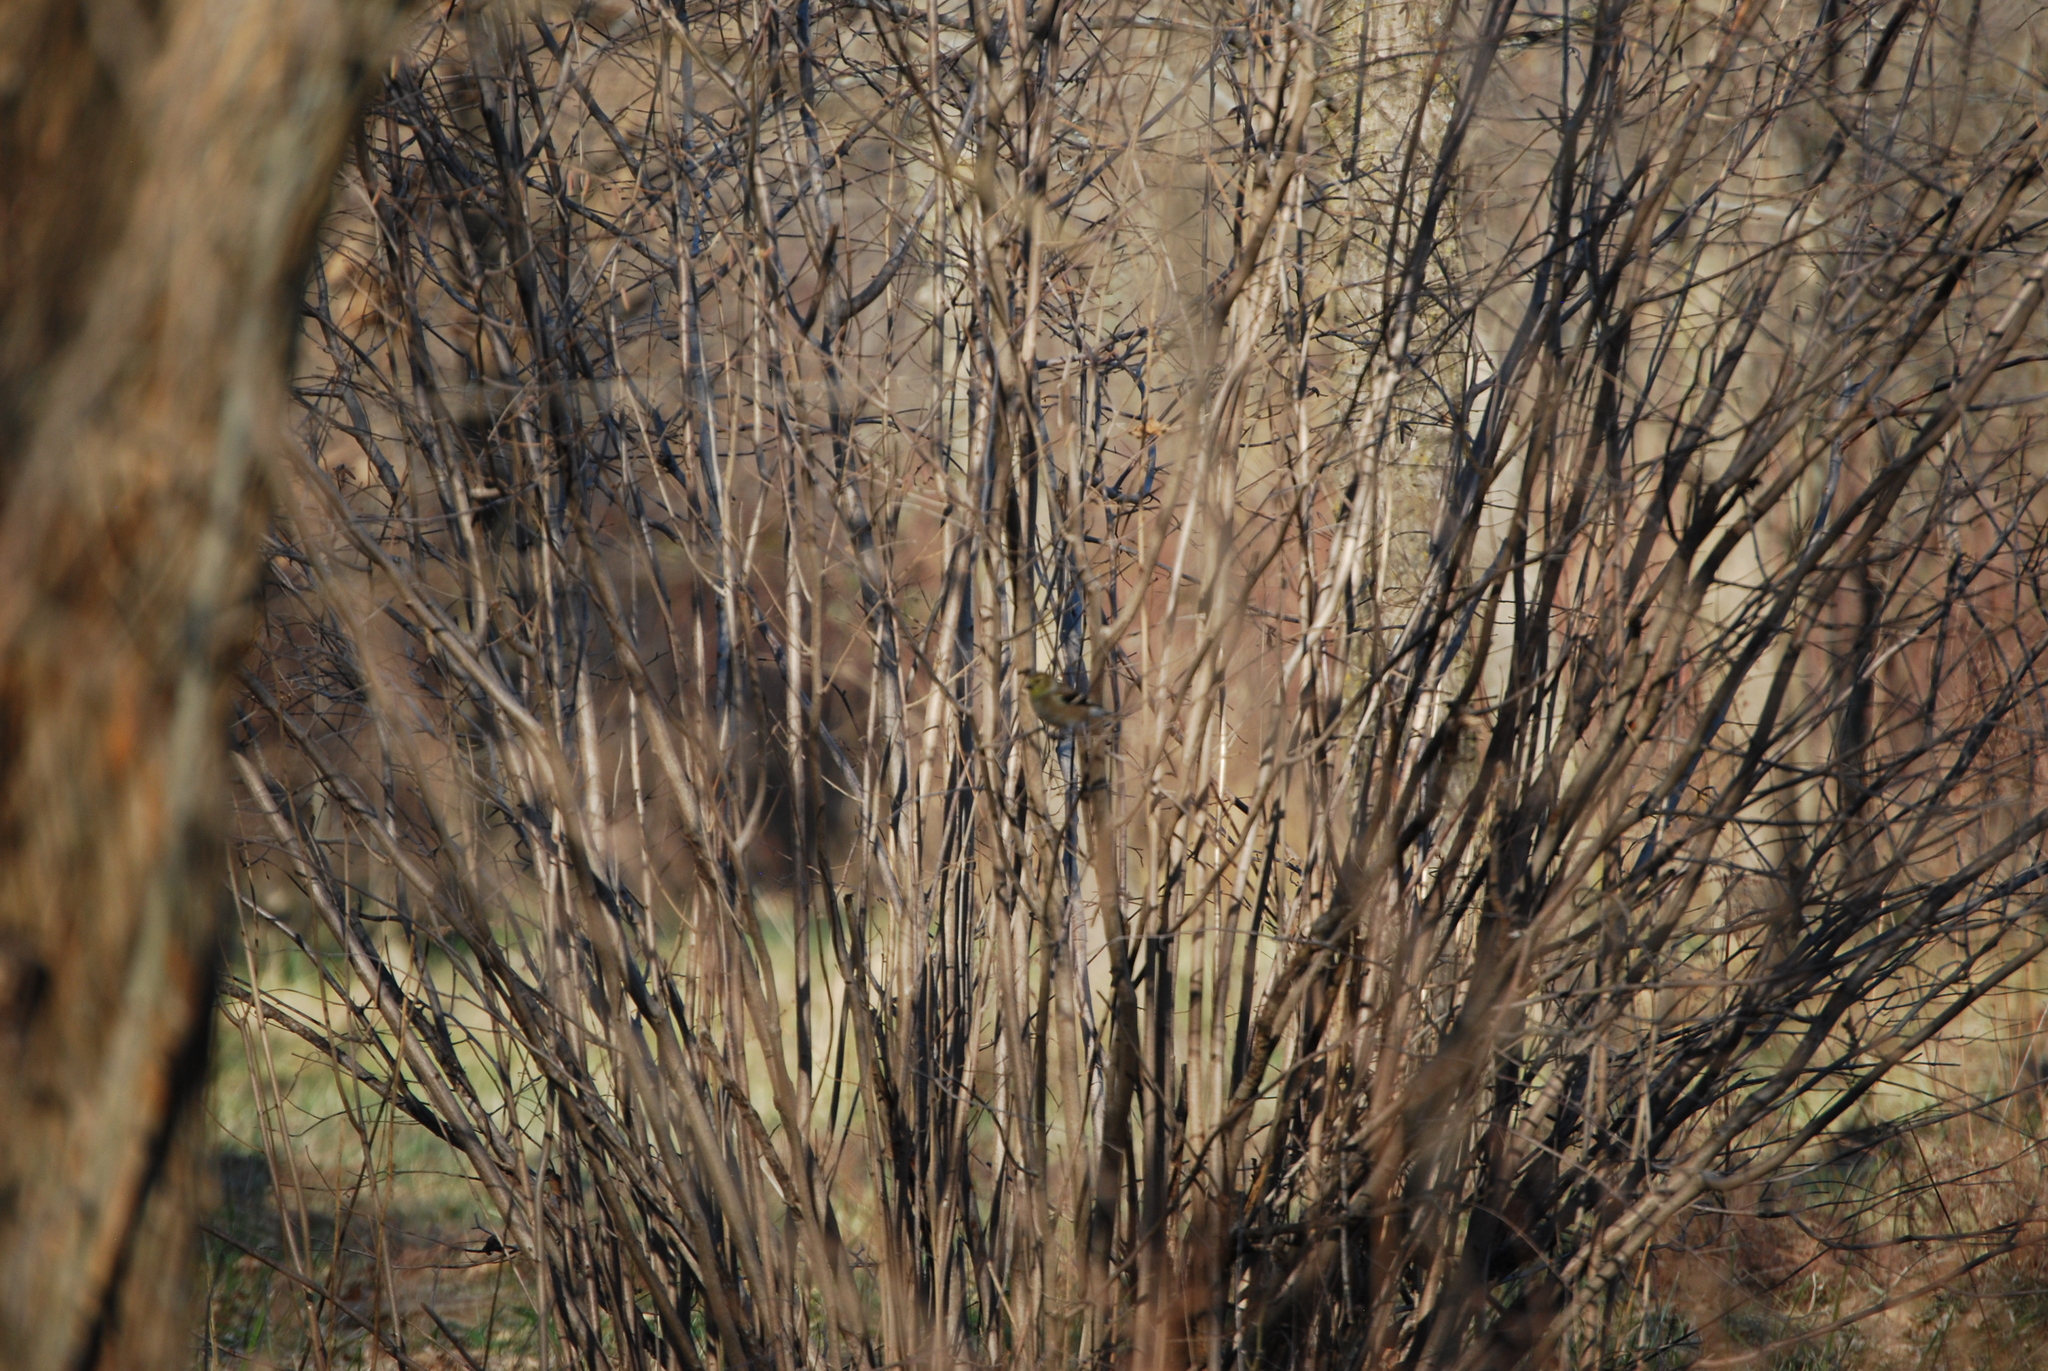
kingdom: Animalia
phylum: Chordata
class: Aves
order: Passeriformes
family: Fringillidae
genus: Spinus
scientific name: Spinus tristis
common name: American goldfinch
